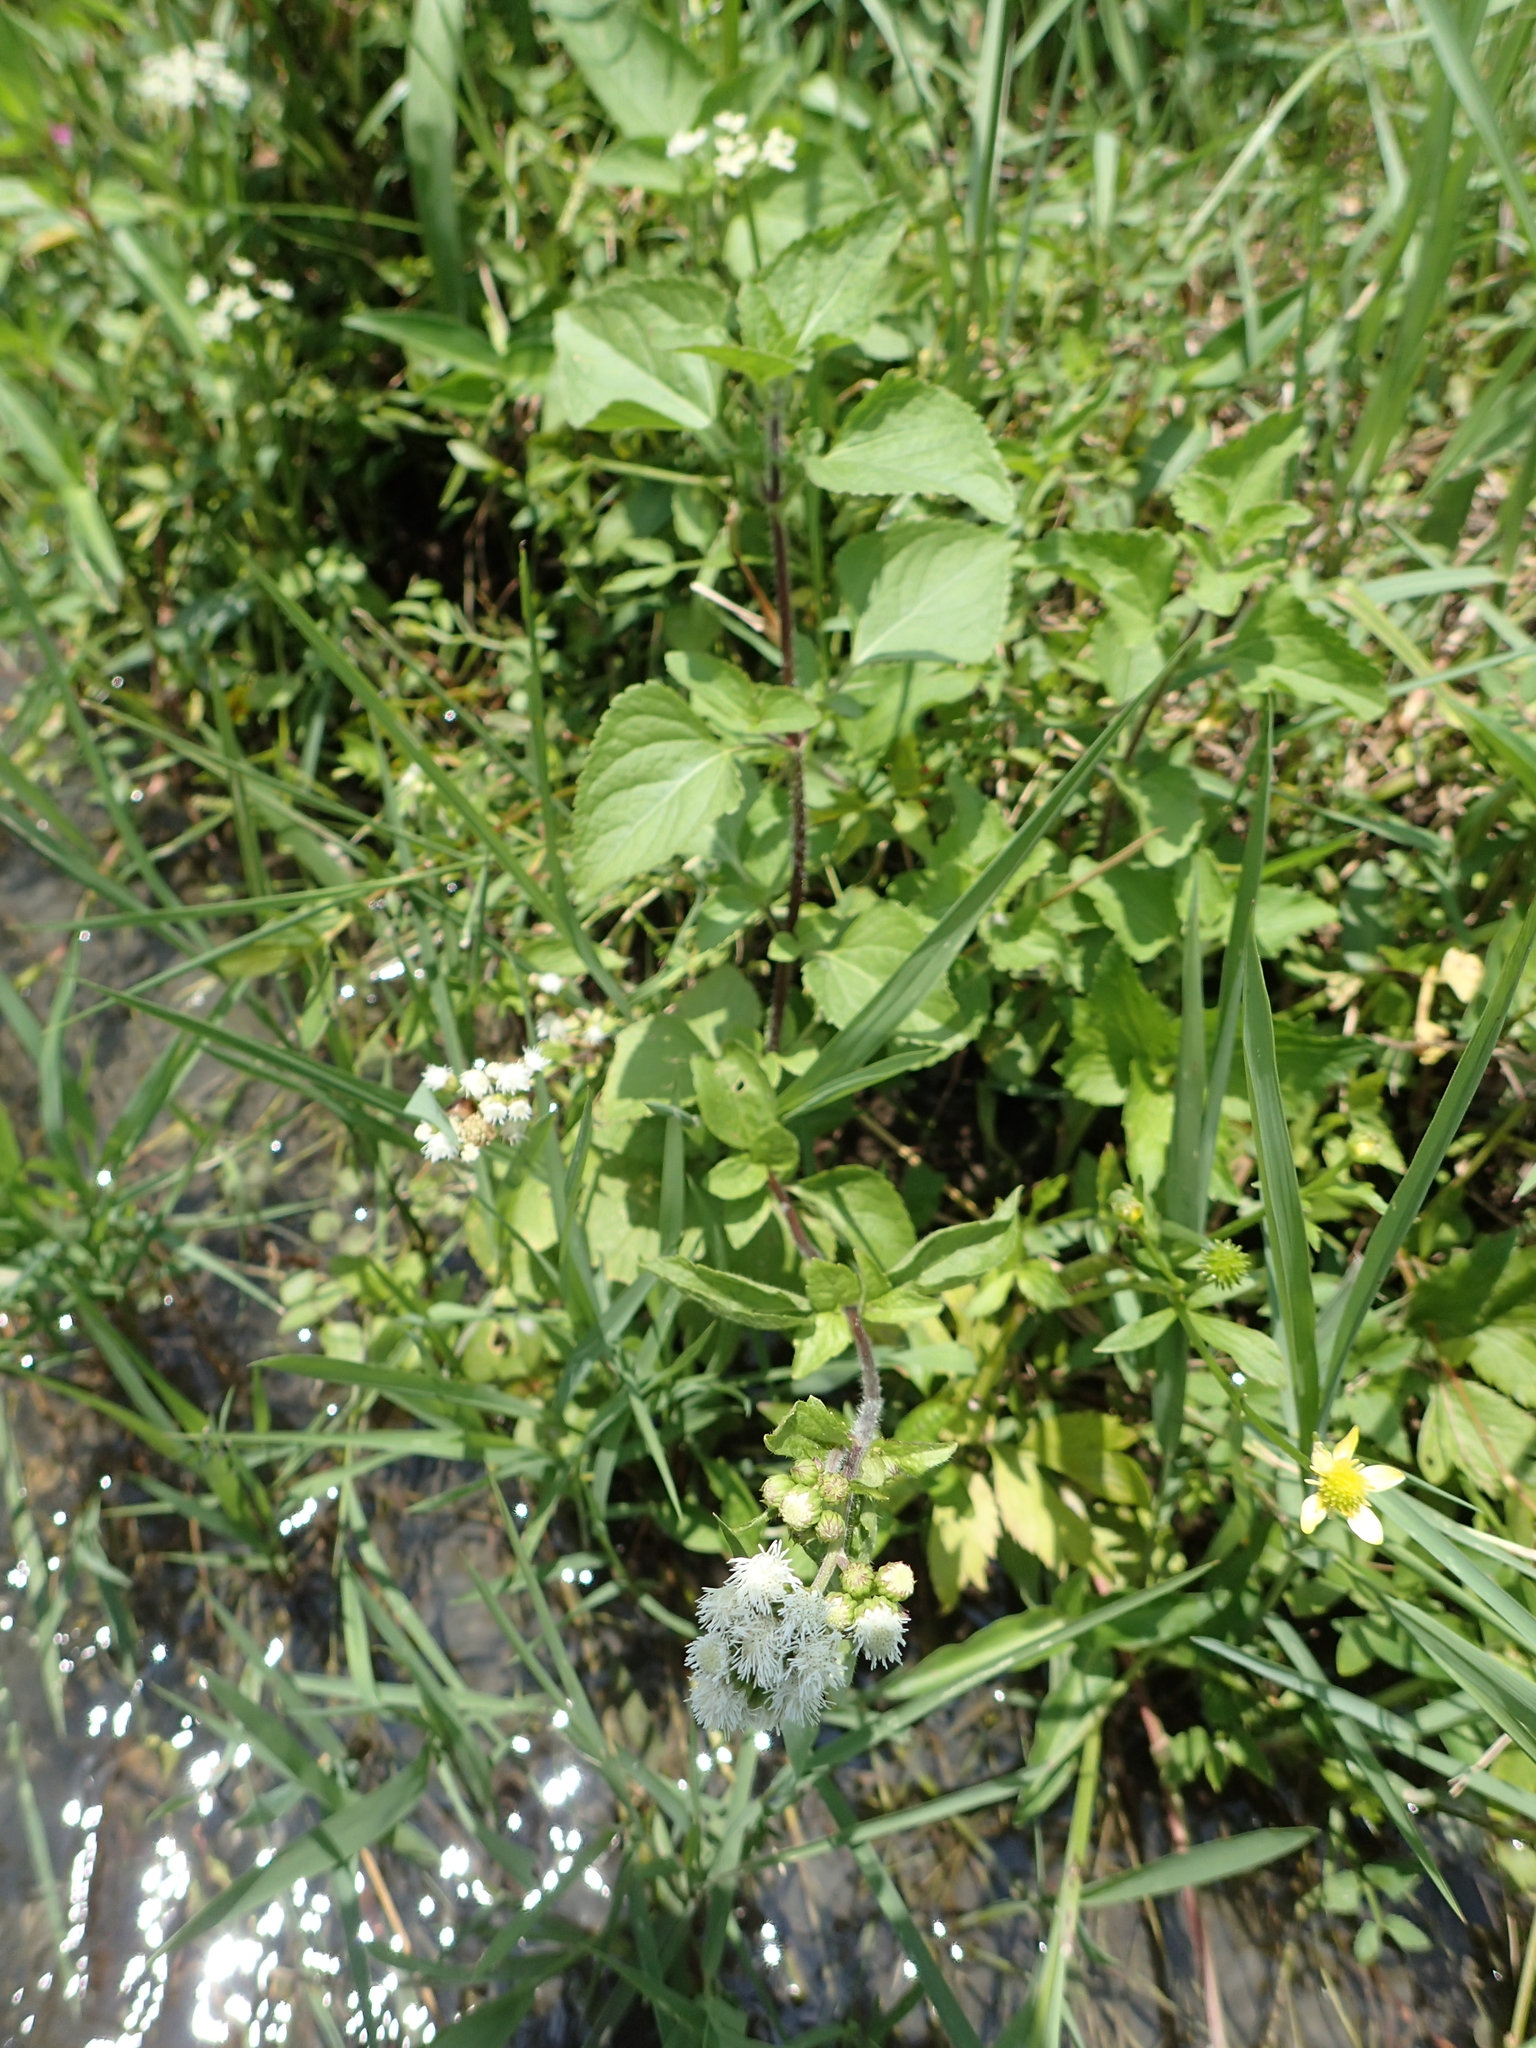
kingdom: Plantae
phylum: Tracheophyta
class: Magnoliopsida
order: Asterales
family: Asteraceae
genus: Ageratum
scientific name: Ageratum conyzoides
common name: Tropical whiteweed
